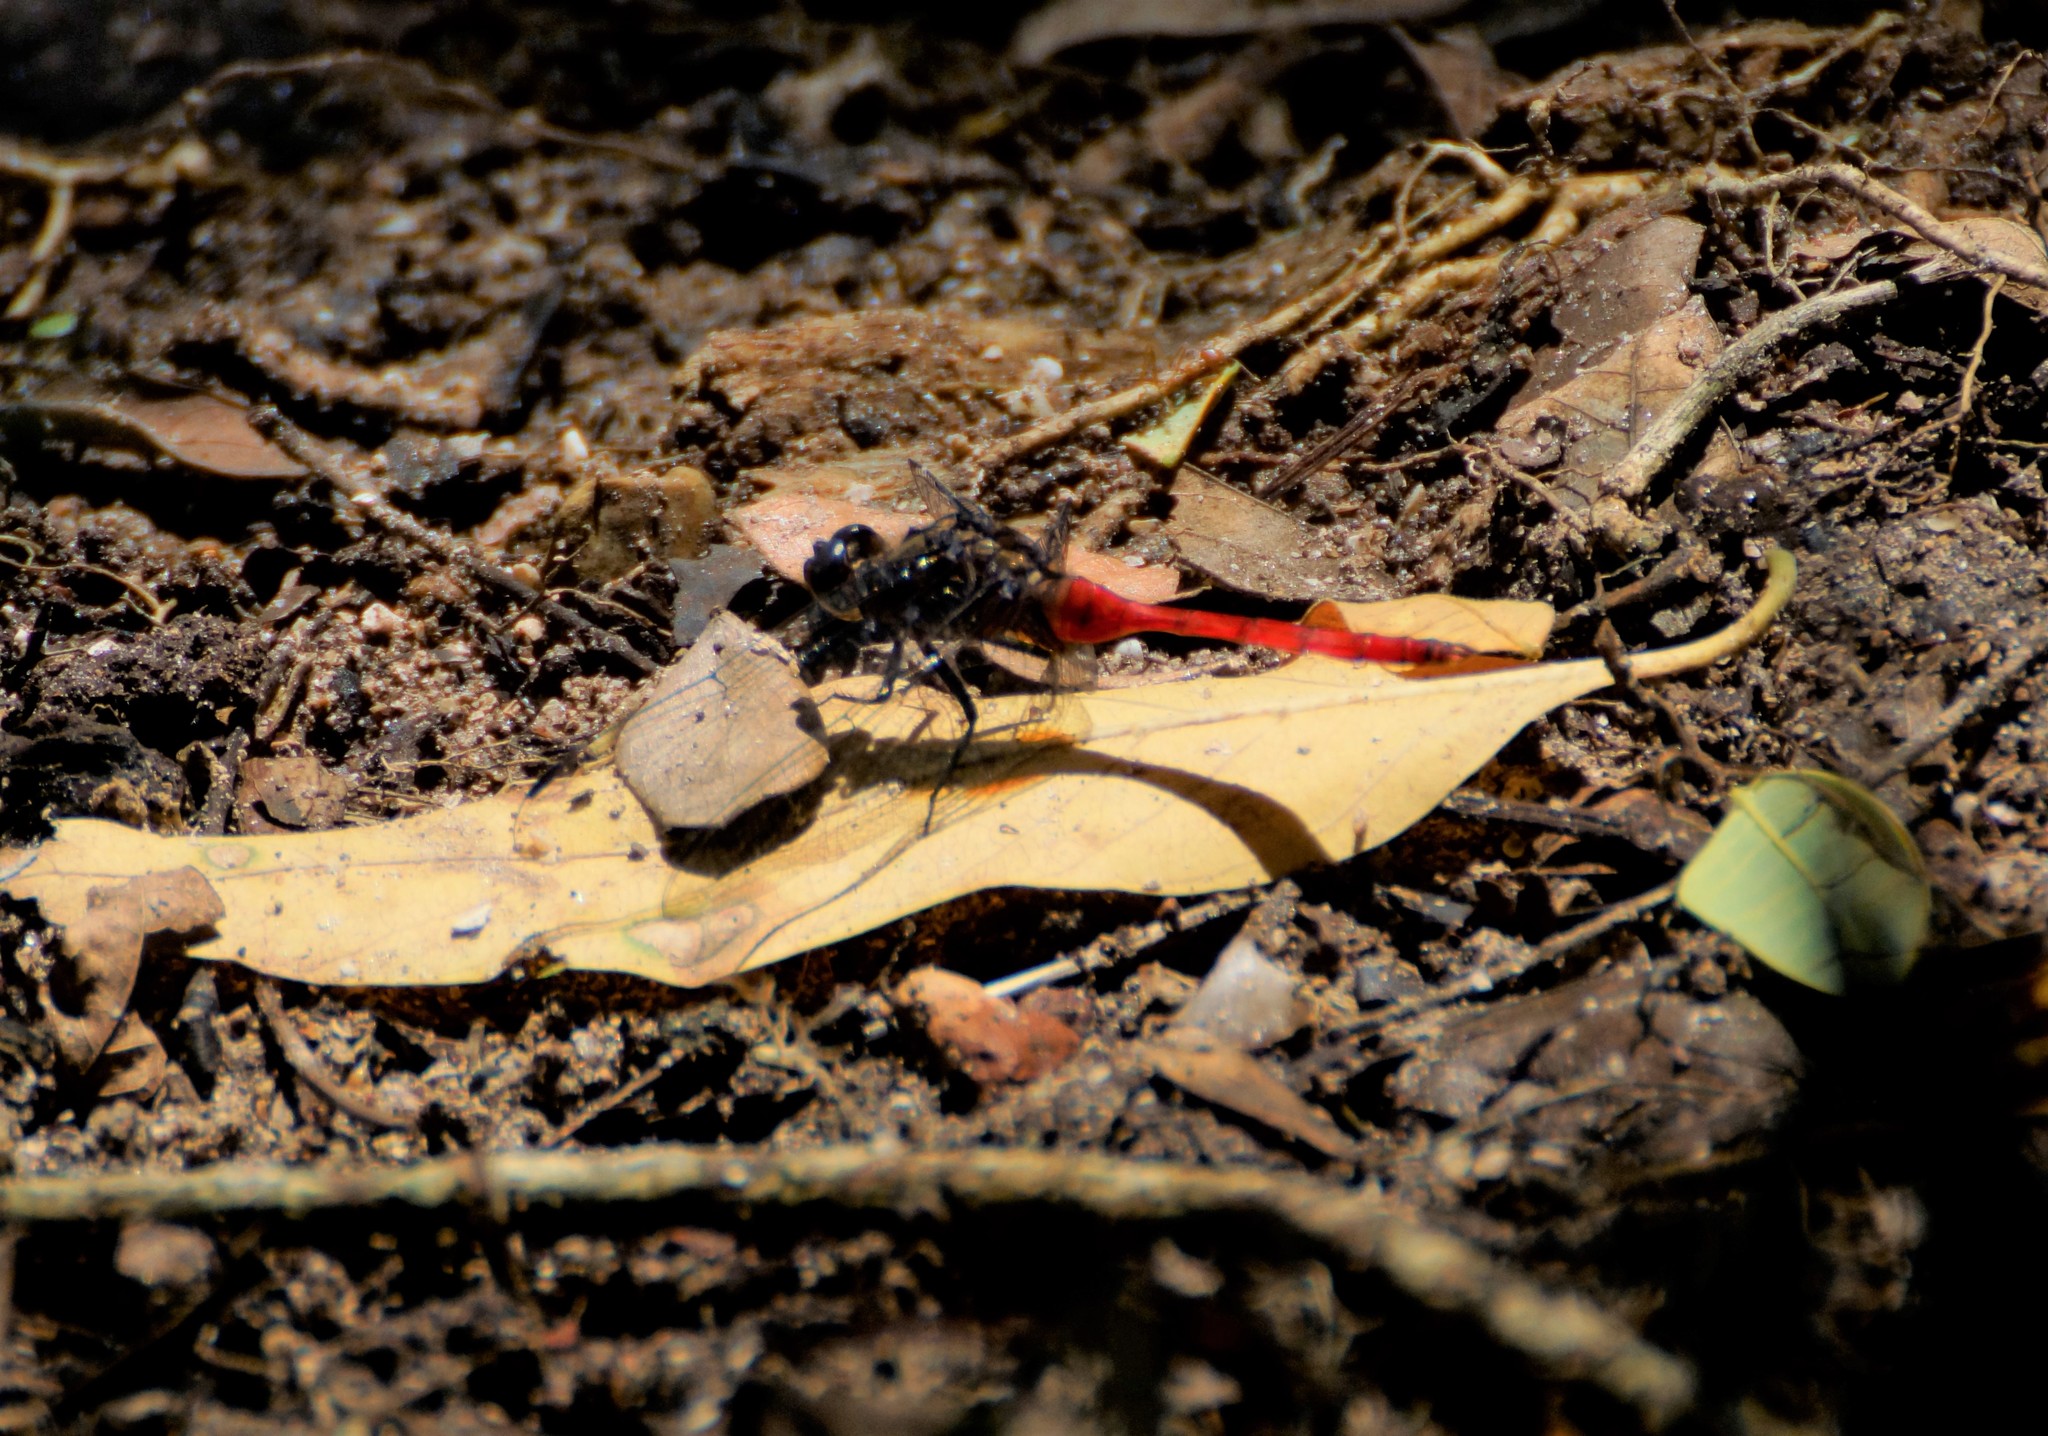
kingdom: Animalia
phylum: Arthropoda
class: Insecta
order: Odonata
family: Libellulidae
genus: Orthetrum
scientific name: Orthetrum villosovittatum
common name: Firery skimmer
